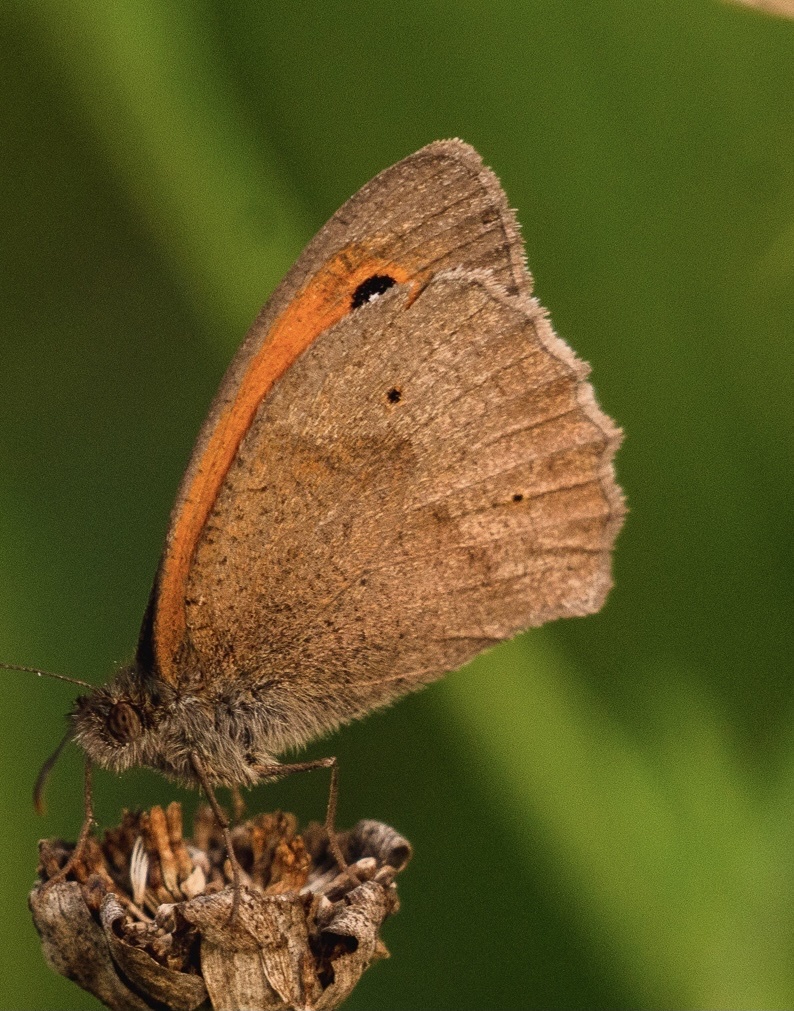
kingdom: Animalia
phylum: Arthropoda
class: Insecta
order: Lepidoptera
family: Nymphalidae
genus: Maniola
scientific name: Maniola jurtina
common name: Meadow brown
